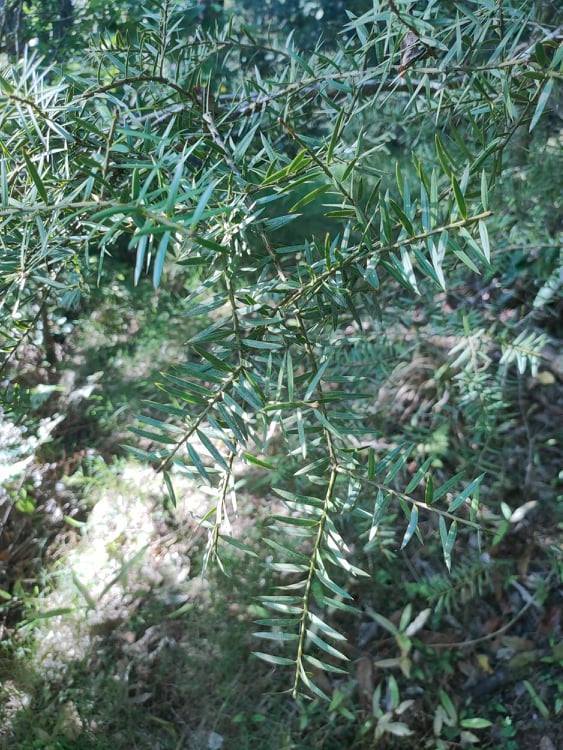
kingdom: Plantae
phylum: Tracheophyta
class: Pinopsida
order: Pinales
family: Podocarpaceae
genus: Podocarpus
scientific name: Podocarpus totara
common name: Totara
